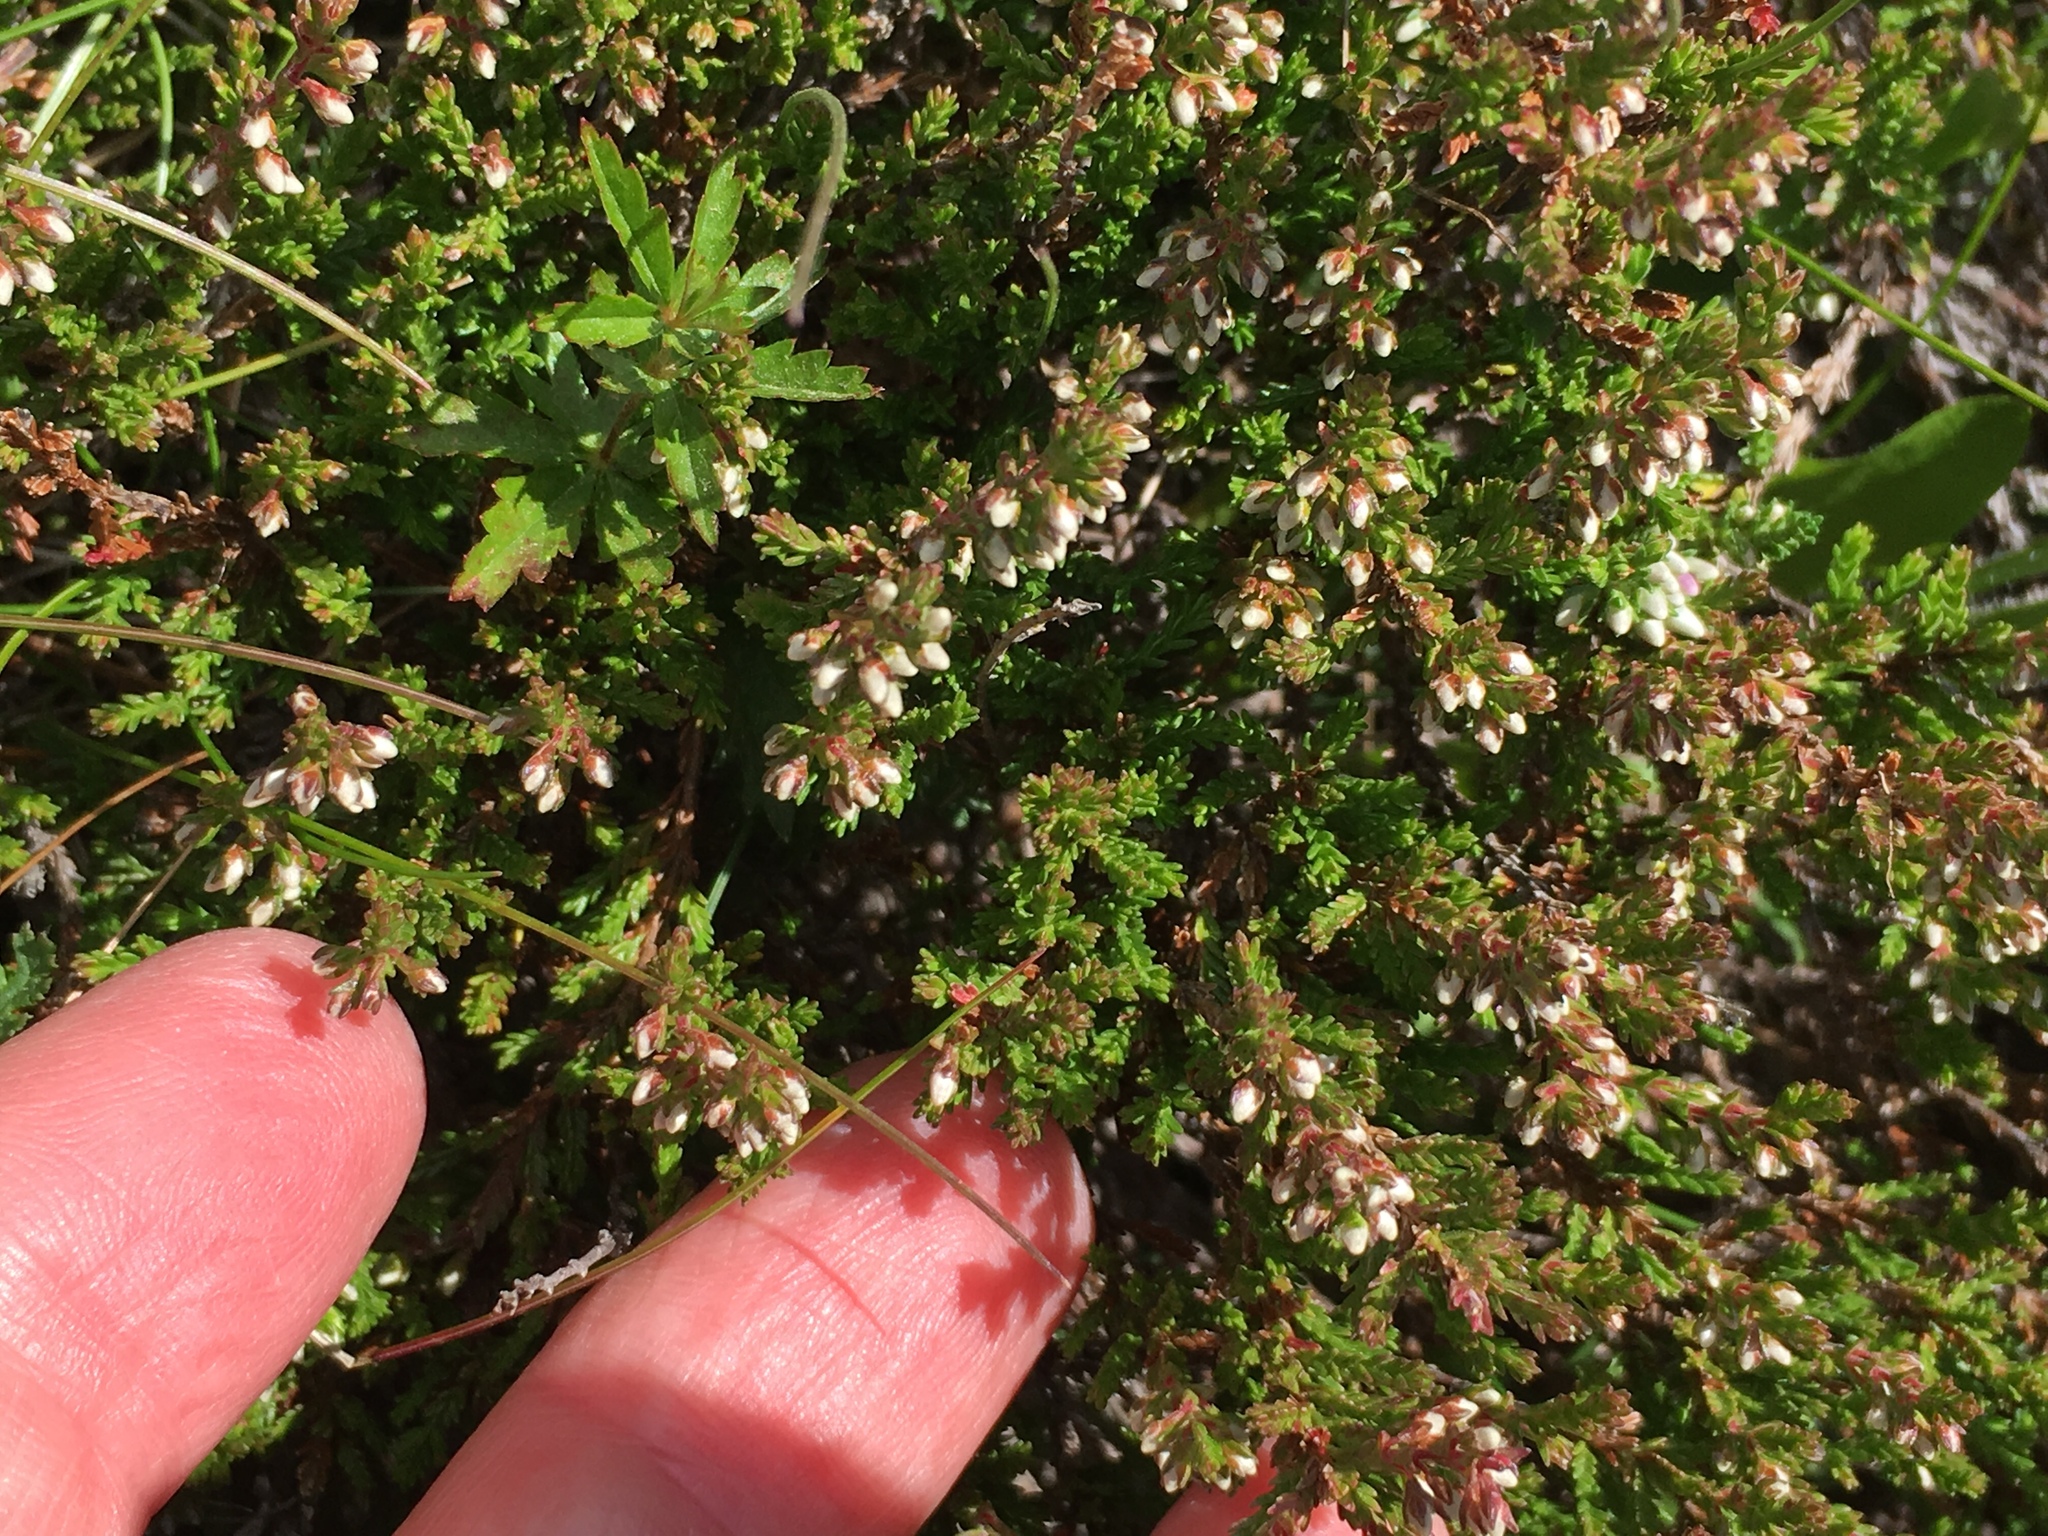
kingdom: Plantae
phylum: Tracheophyta
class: Magnoliopsida
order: Ericales
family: Ericaceae
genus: Calluna
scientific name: Calluna vulgaris
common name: Heather
